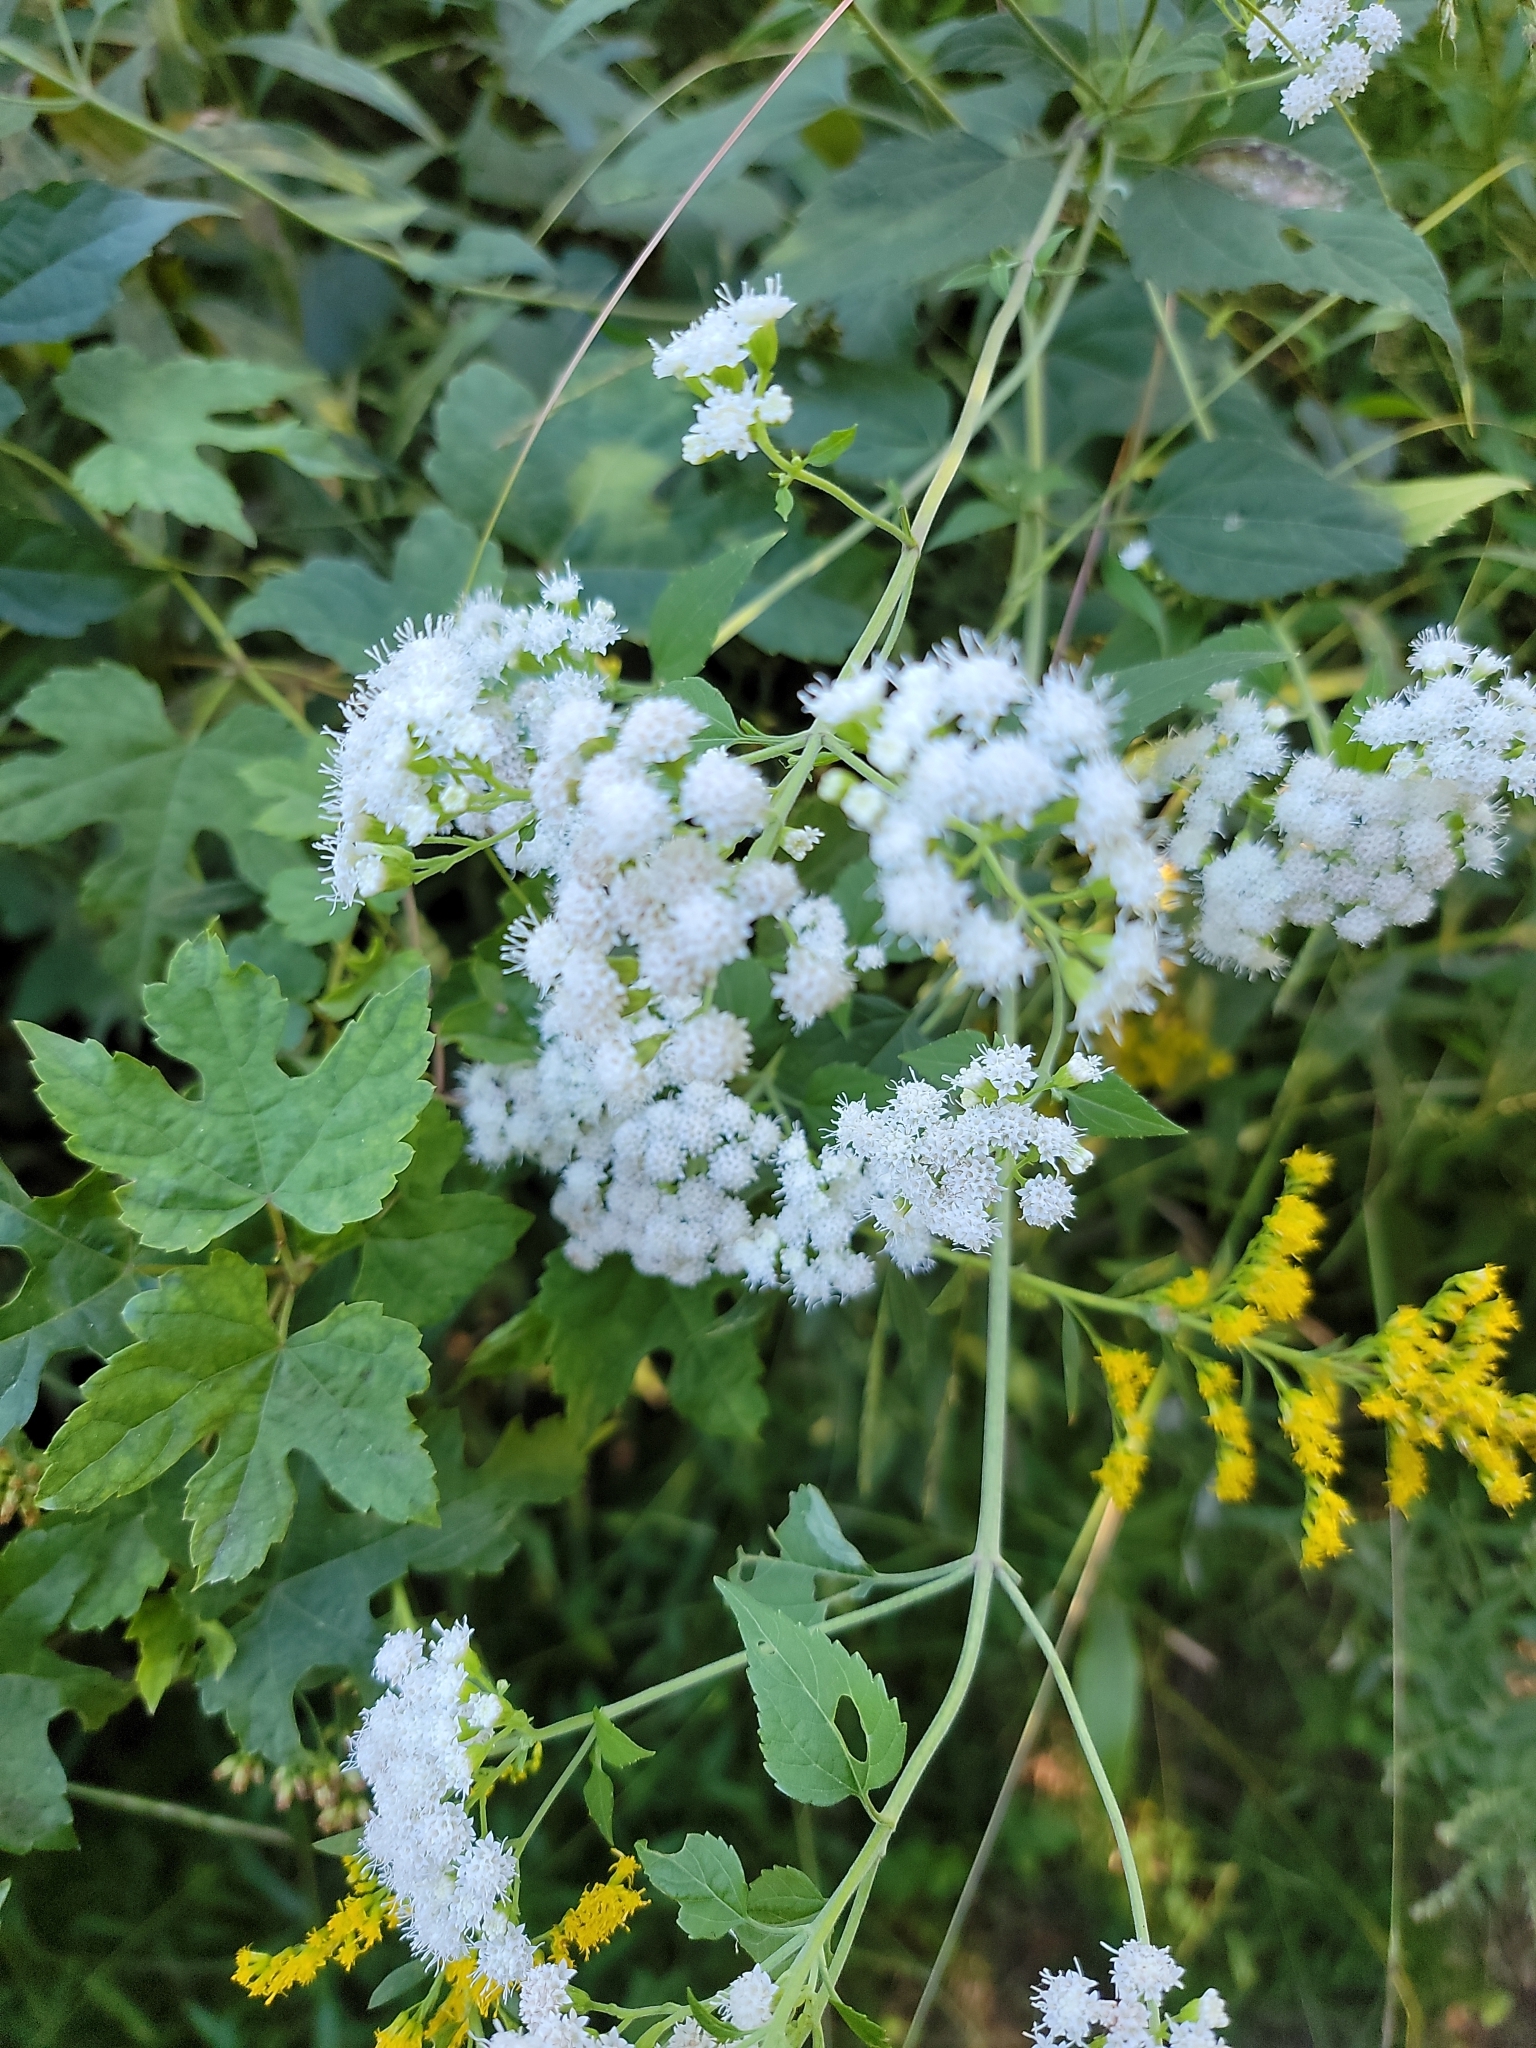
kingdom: Plantae
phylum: Tracheophyta
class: Magnoliopsida
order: Asterales
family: Asteraceae
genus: Ageratina
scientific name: Ageratina altissima
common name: White snakeroot
